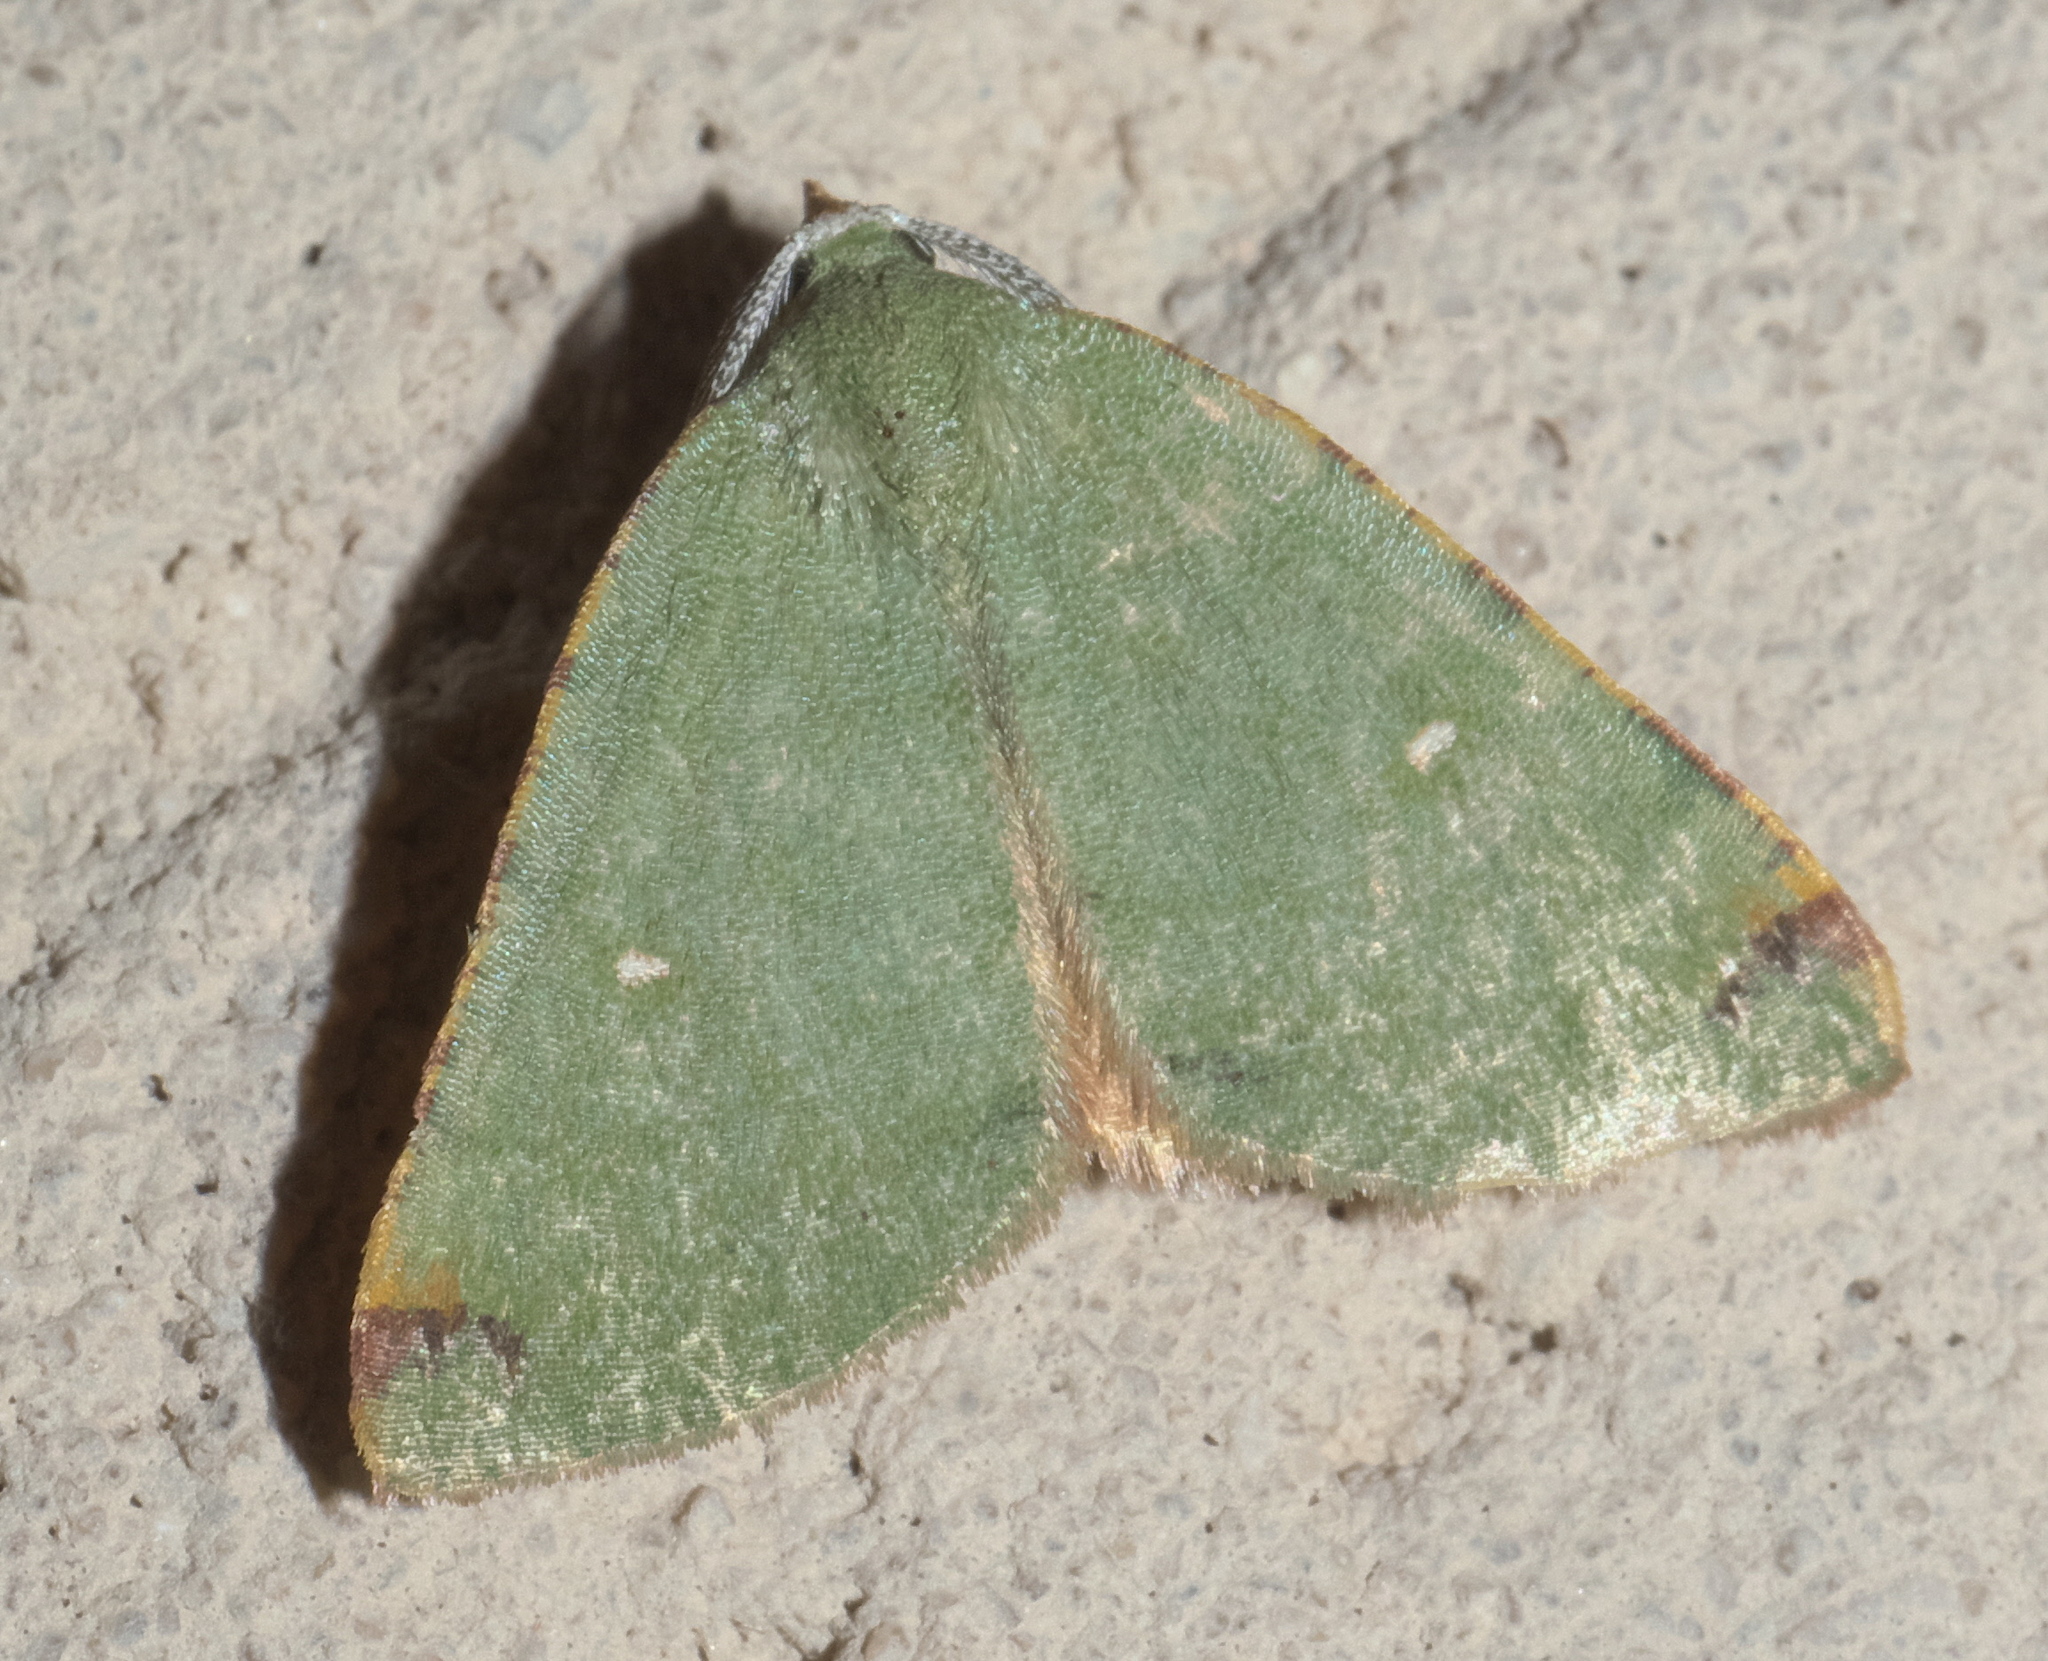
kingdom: Animalia
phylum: Arthropoda
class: Insecta
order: Lepidoptera
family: Geometridae
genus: Chloraspilates
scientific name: Chloraspilates bicoloraria
